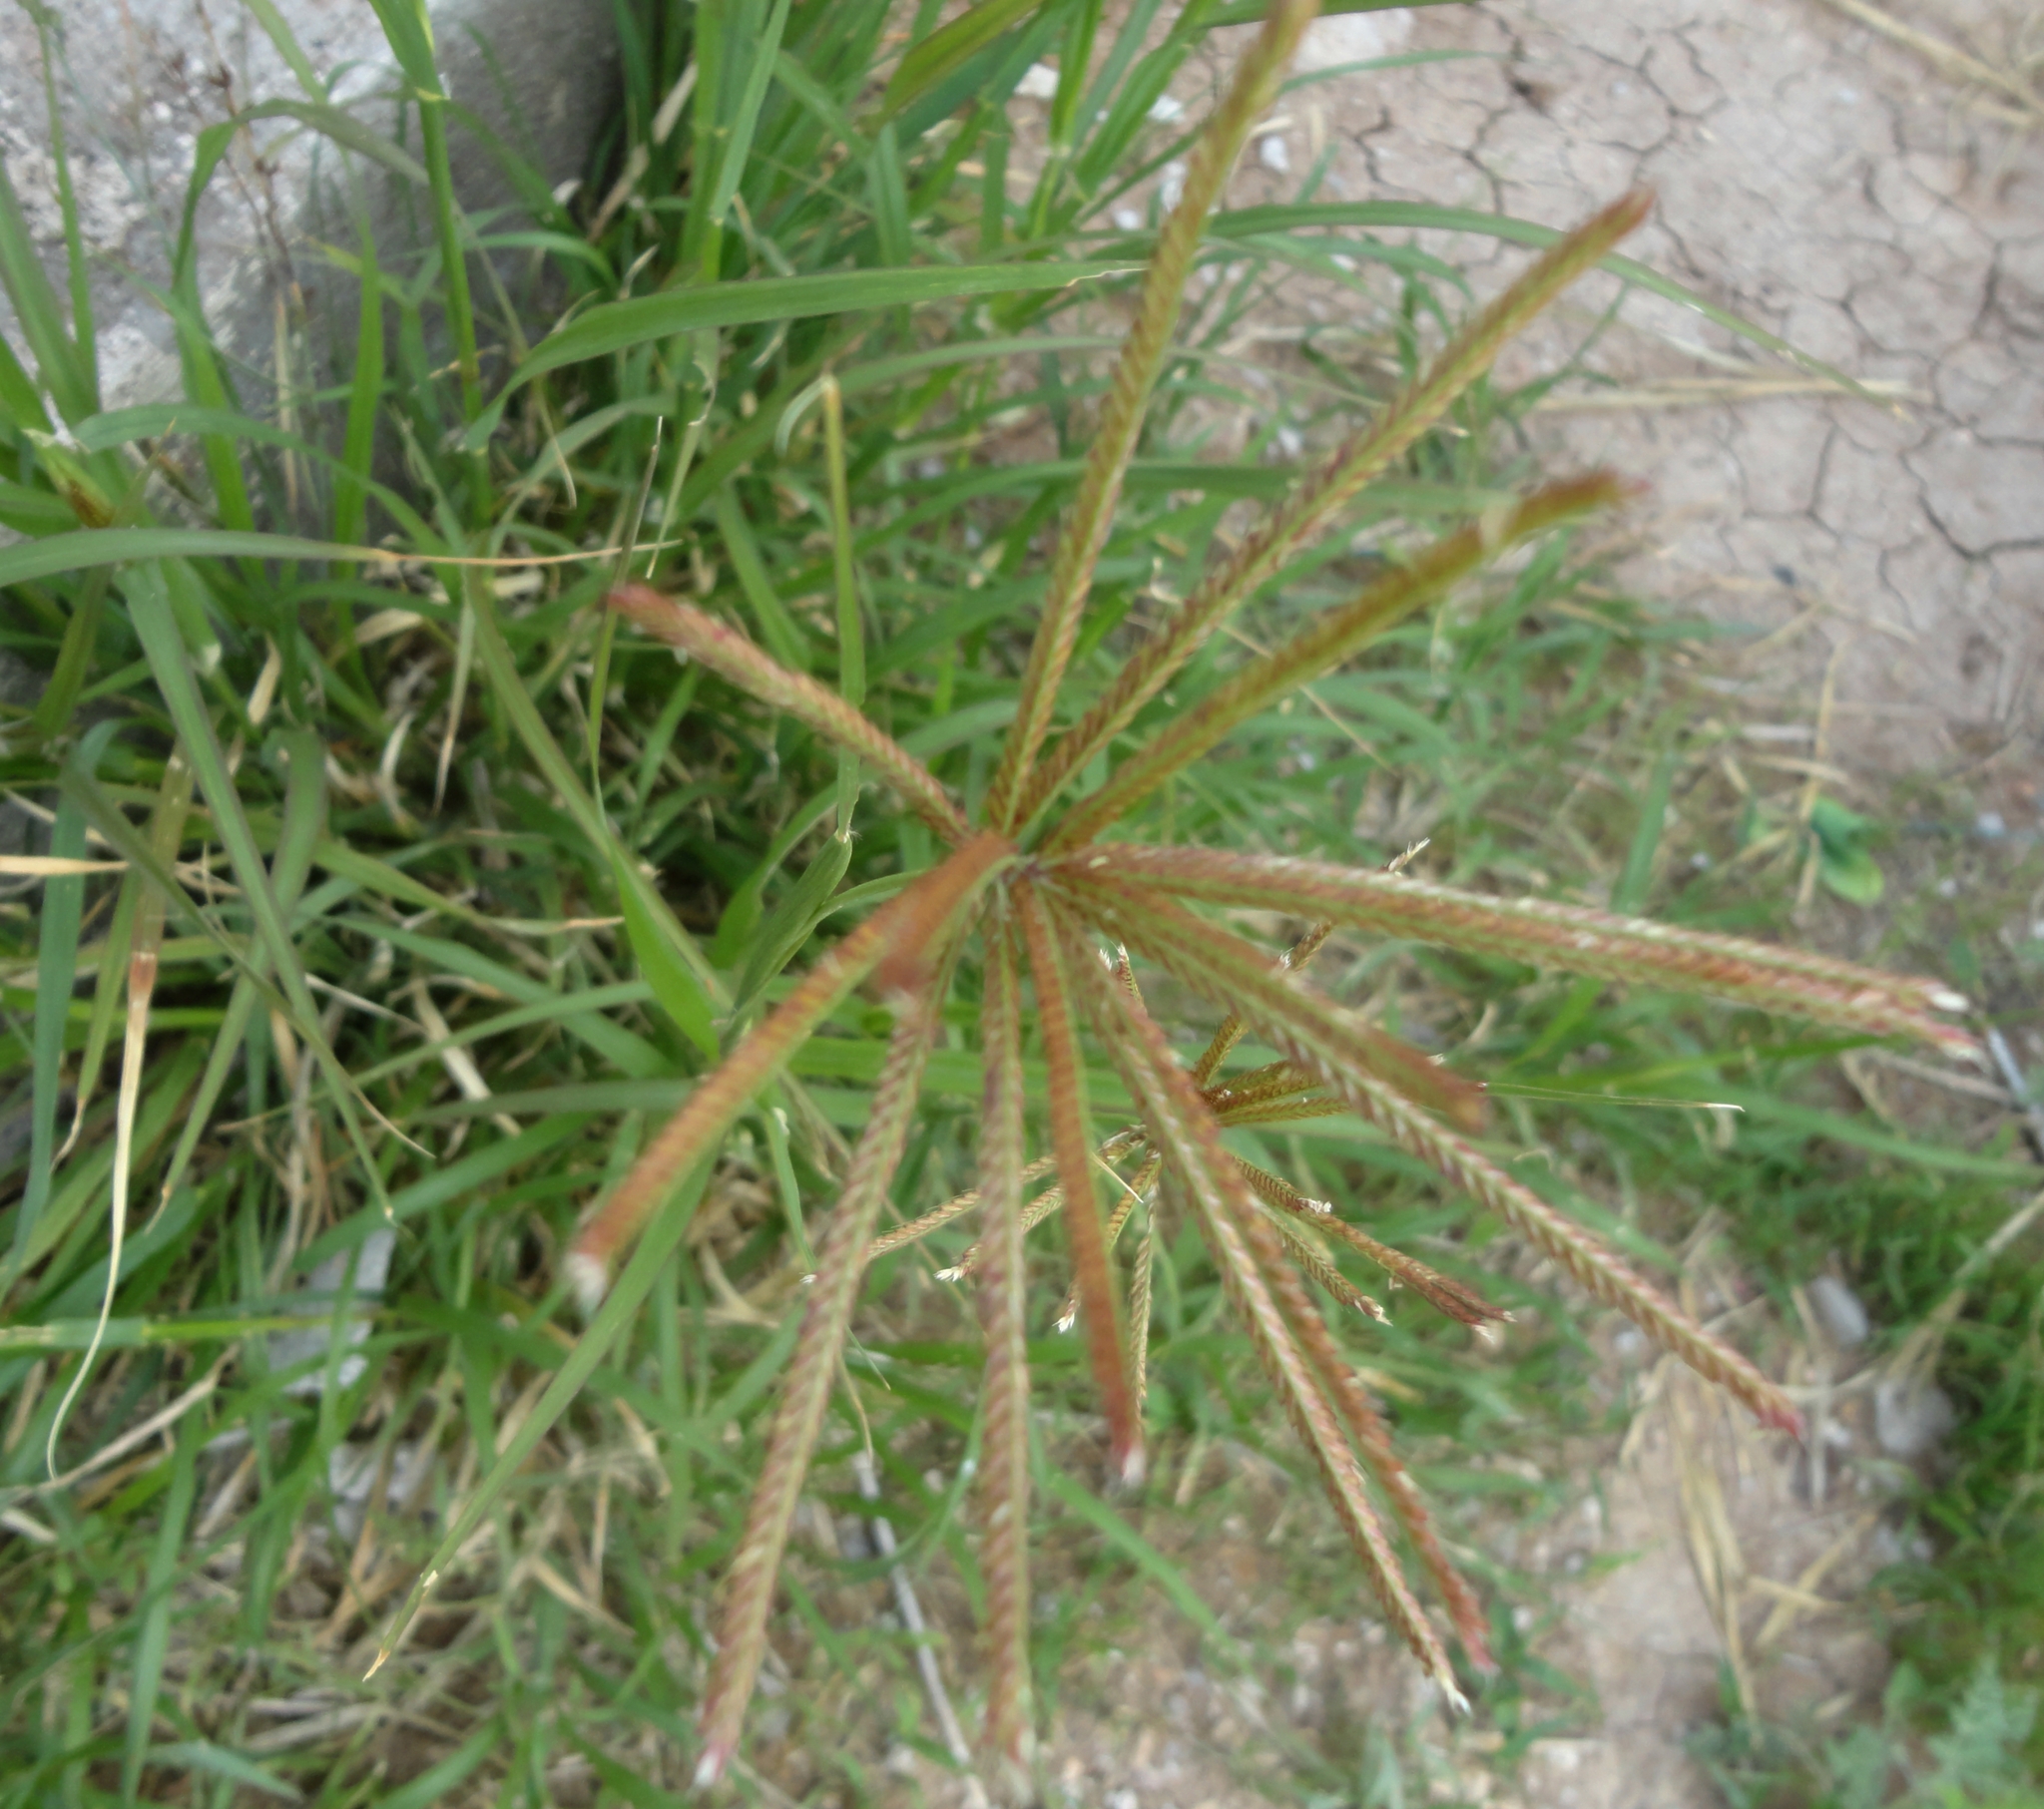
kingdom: Plantae
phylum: Tracheophyta
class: Liliopsida
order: Poales
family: Poaceae
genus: Chloris
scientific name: Chloris cucullata
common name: Hooded windmill grass
